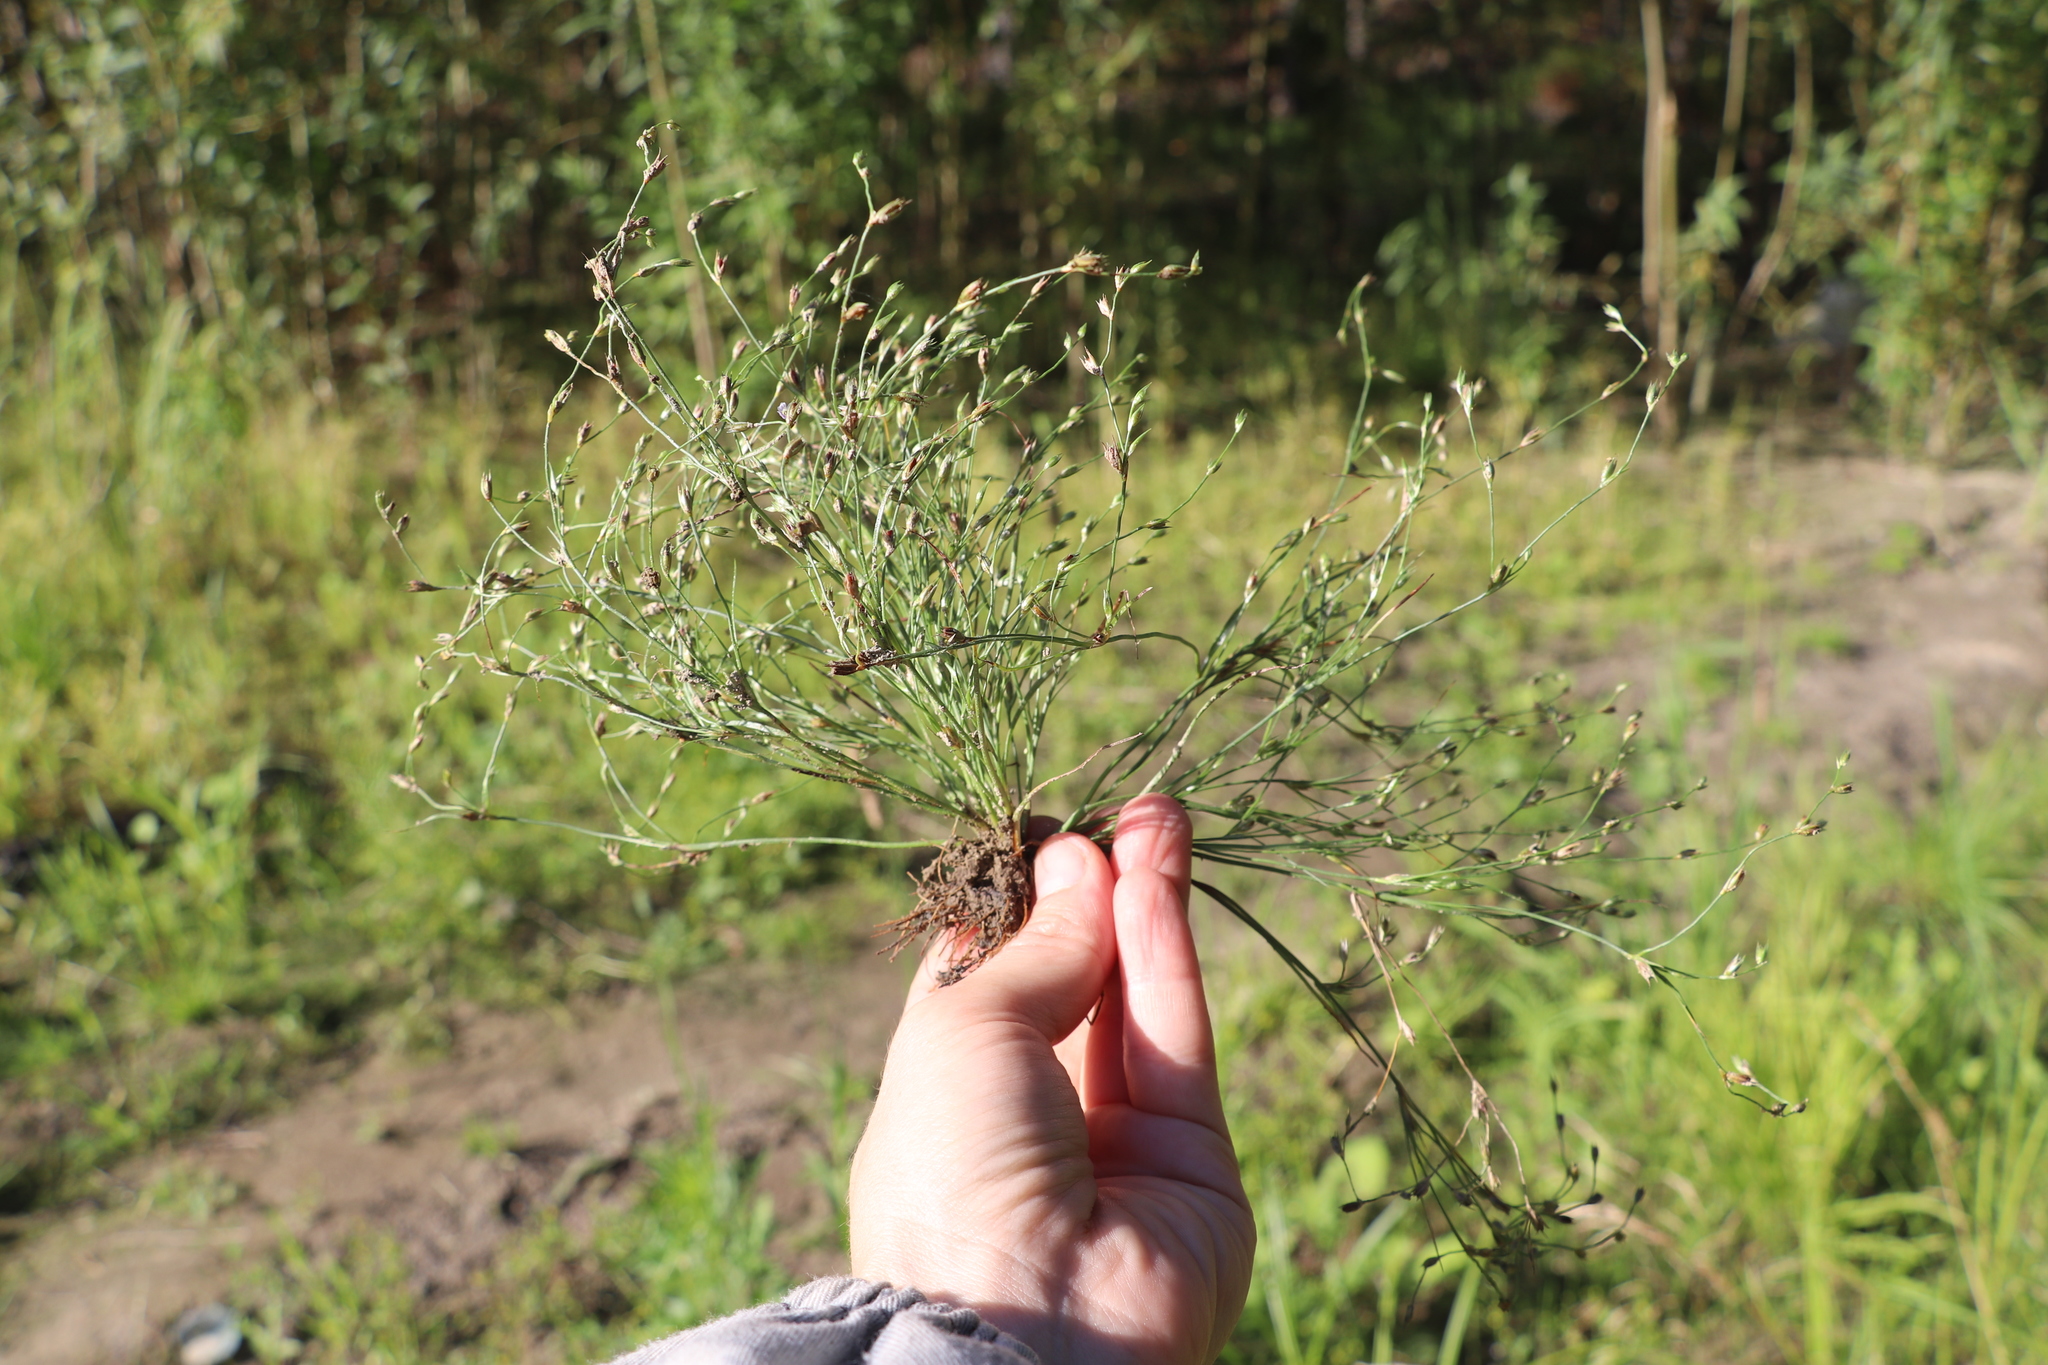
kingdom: Plantae
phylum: Tracheophyta
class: Liliopsida
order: Poales
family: Juncaceae
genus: Juncus
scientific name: Juncus bufonius
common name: Toad rush
